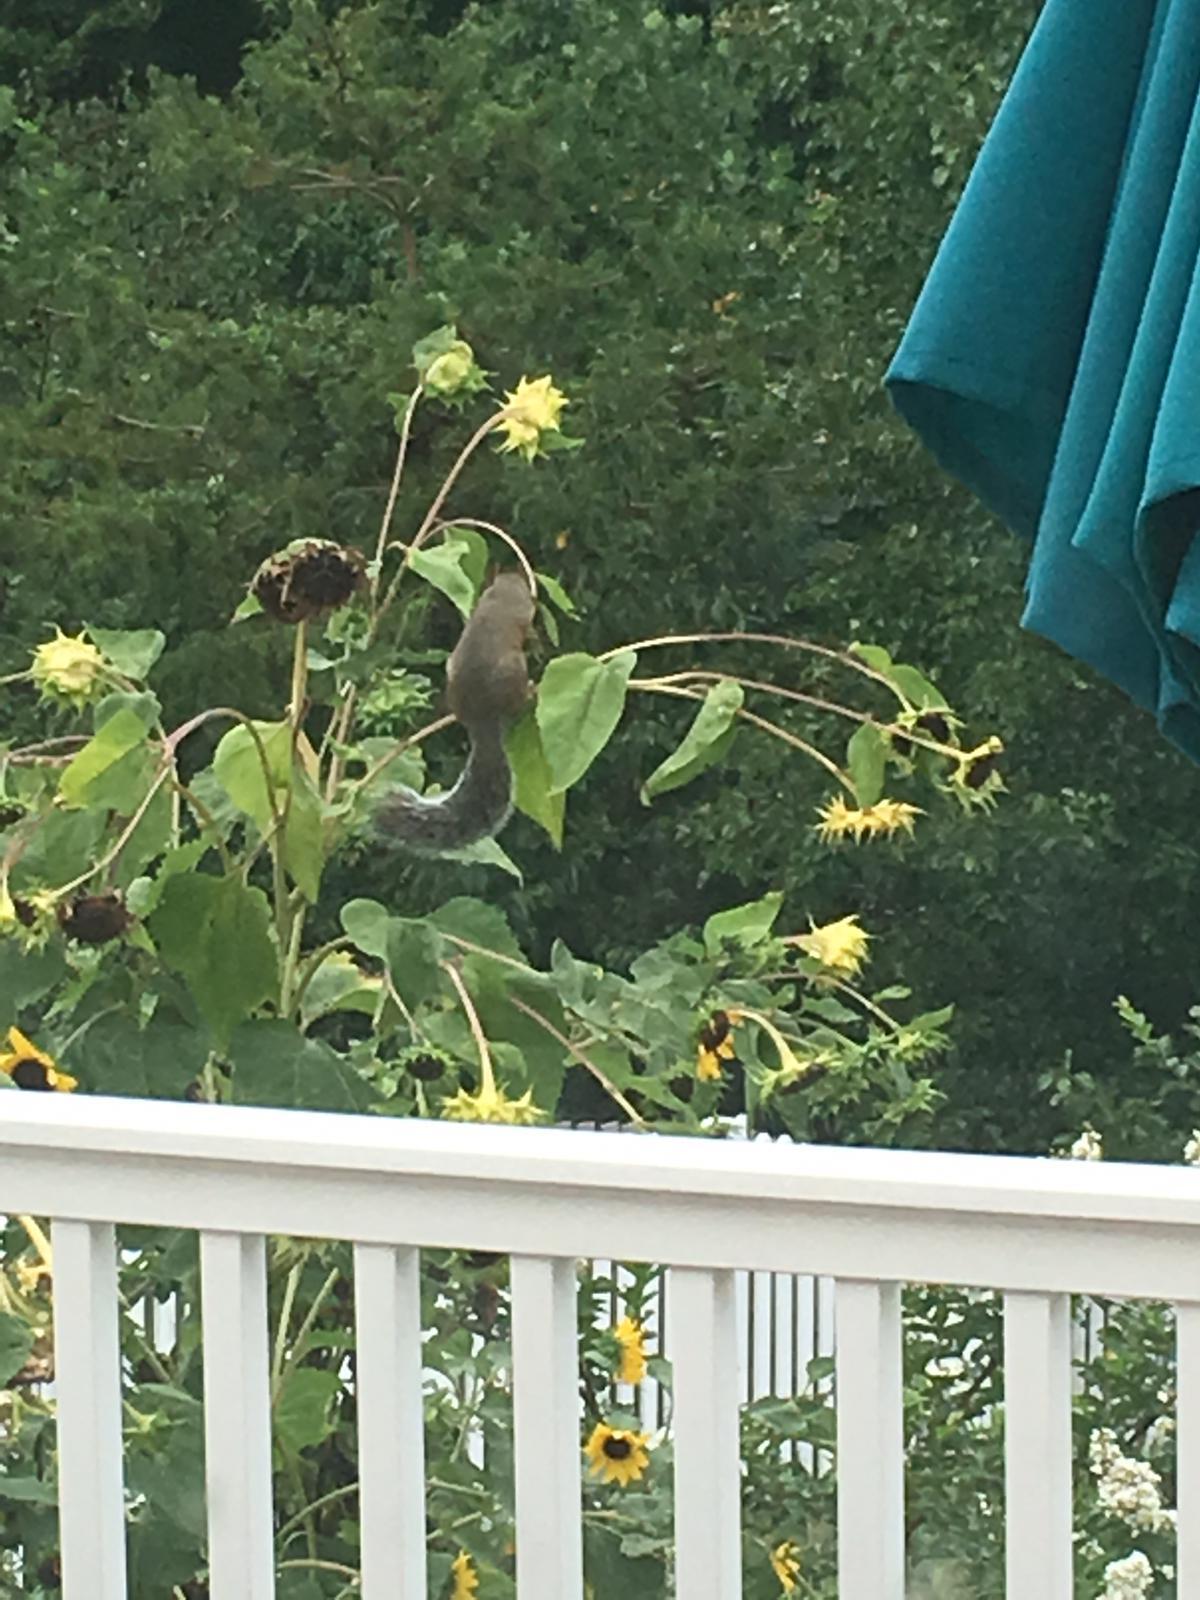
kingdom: Animalia
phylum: Chordata
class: Mammalia
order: Rodentia
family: Sciuridae
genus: Sciurus
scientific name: Sciurus carolinensis
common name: Eastern gray squirrel
